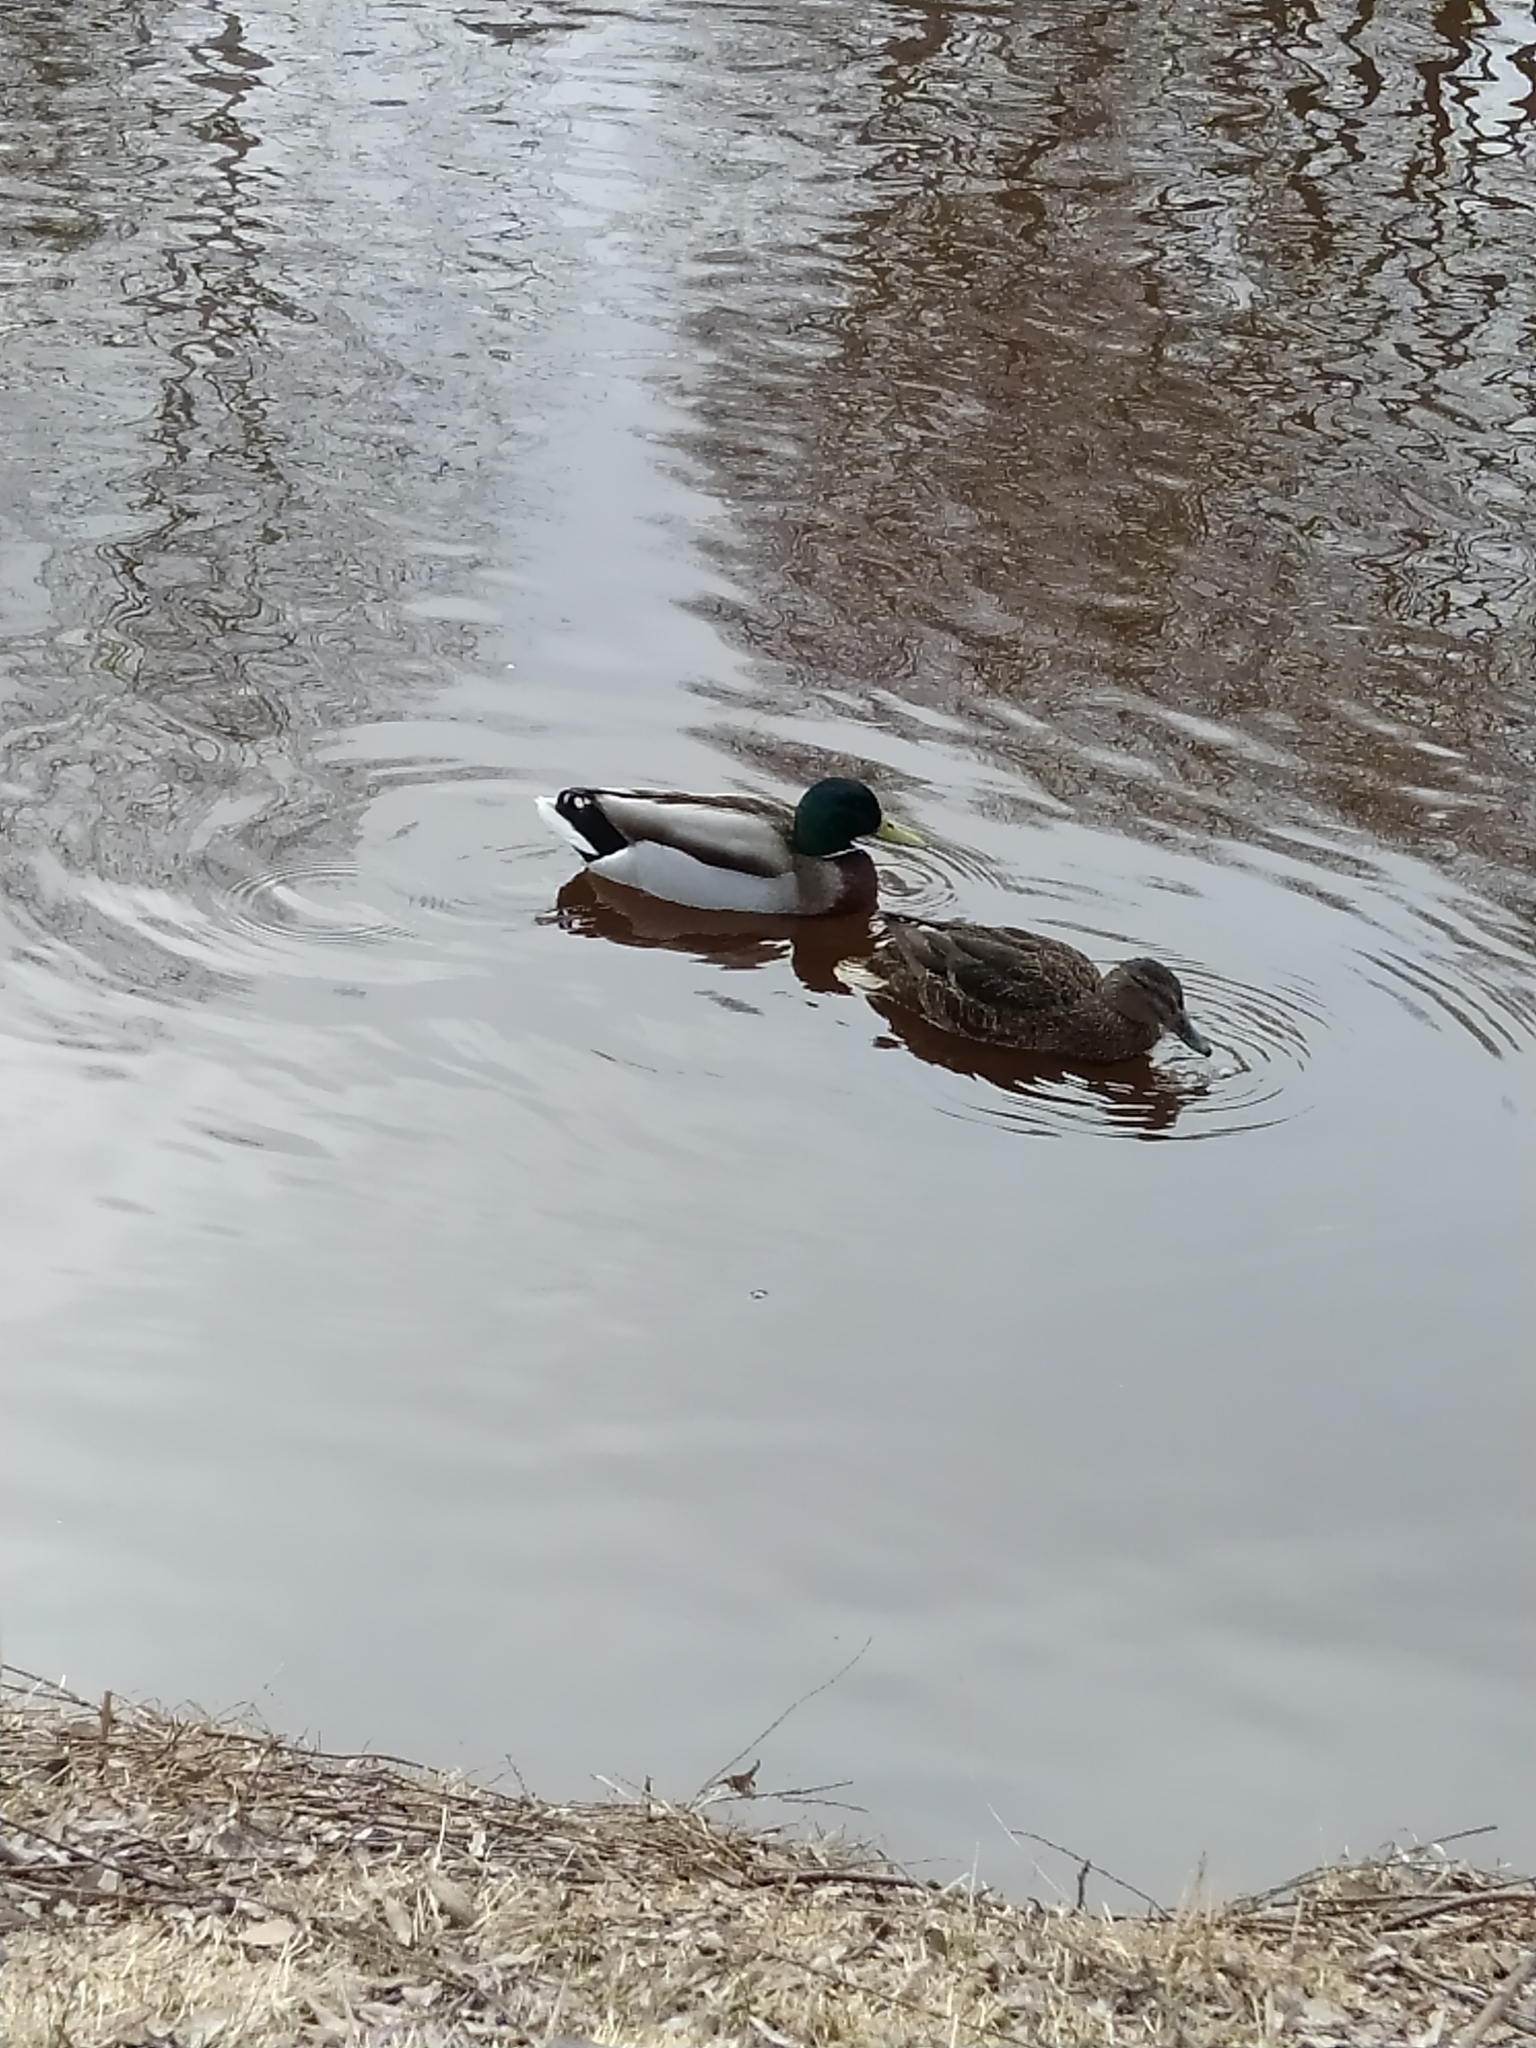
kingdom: Animalia
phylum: Chordata
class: Aves
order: Anseriformes
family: Anatidae
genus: Anas
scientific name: Anas platyrhynchos
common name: Mallard
